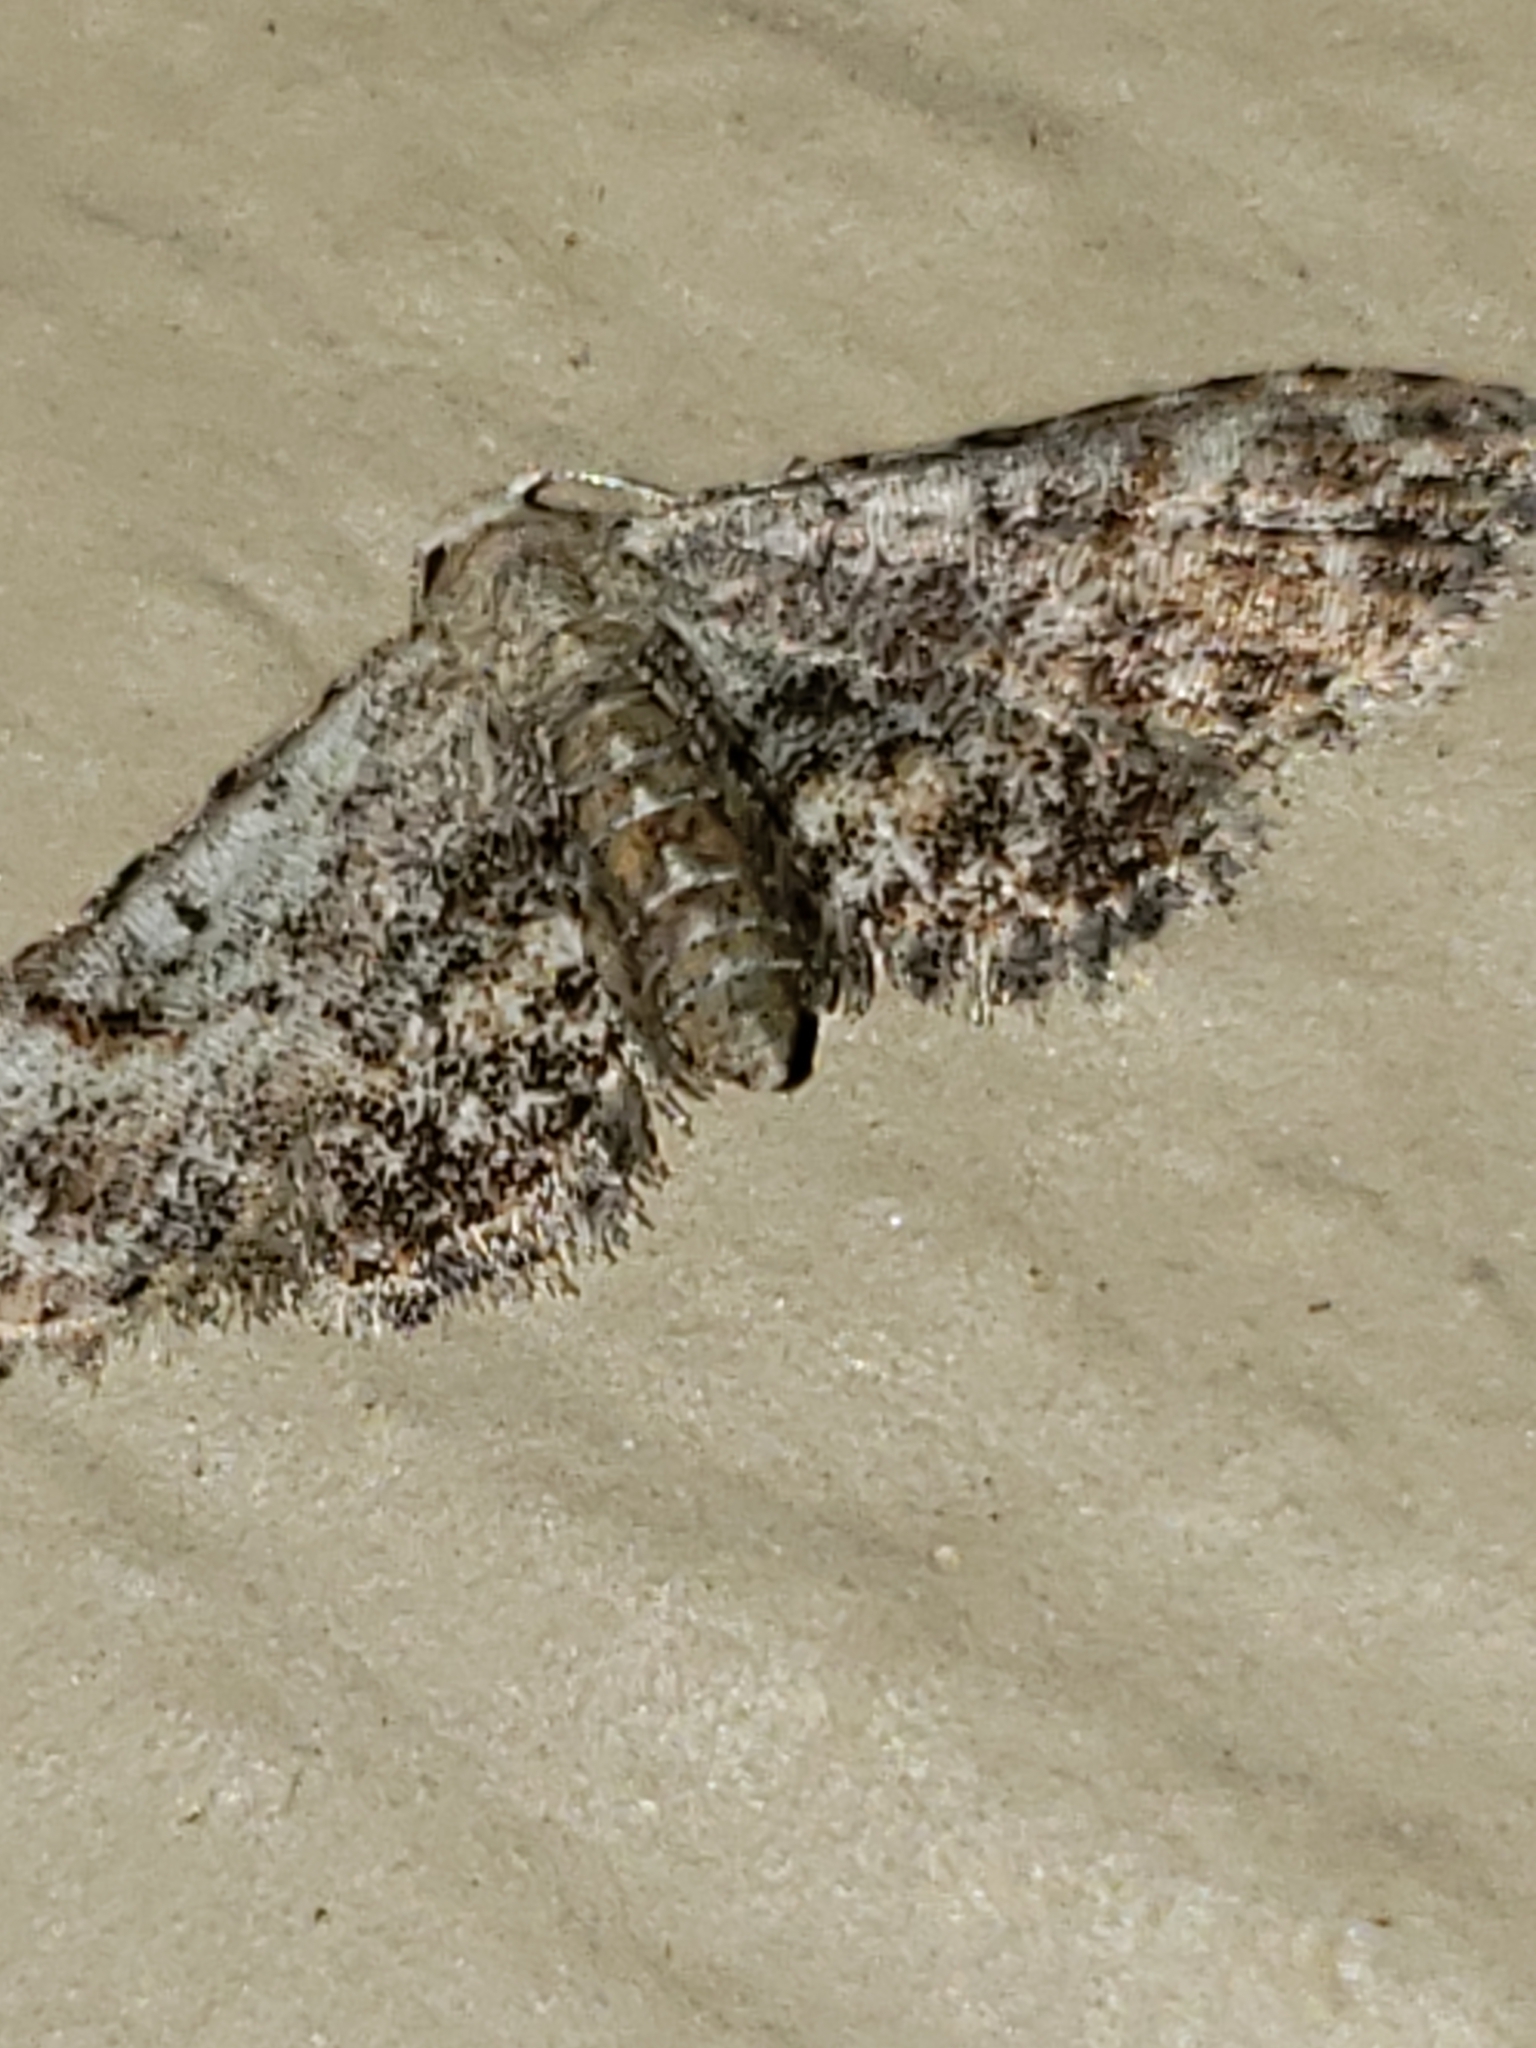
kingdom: Animalia
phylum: Arthropoda
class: Insecta
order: Lepidoptera
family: Erebidae
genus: Sigela
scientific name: Sigela brauneata
